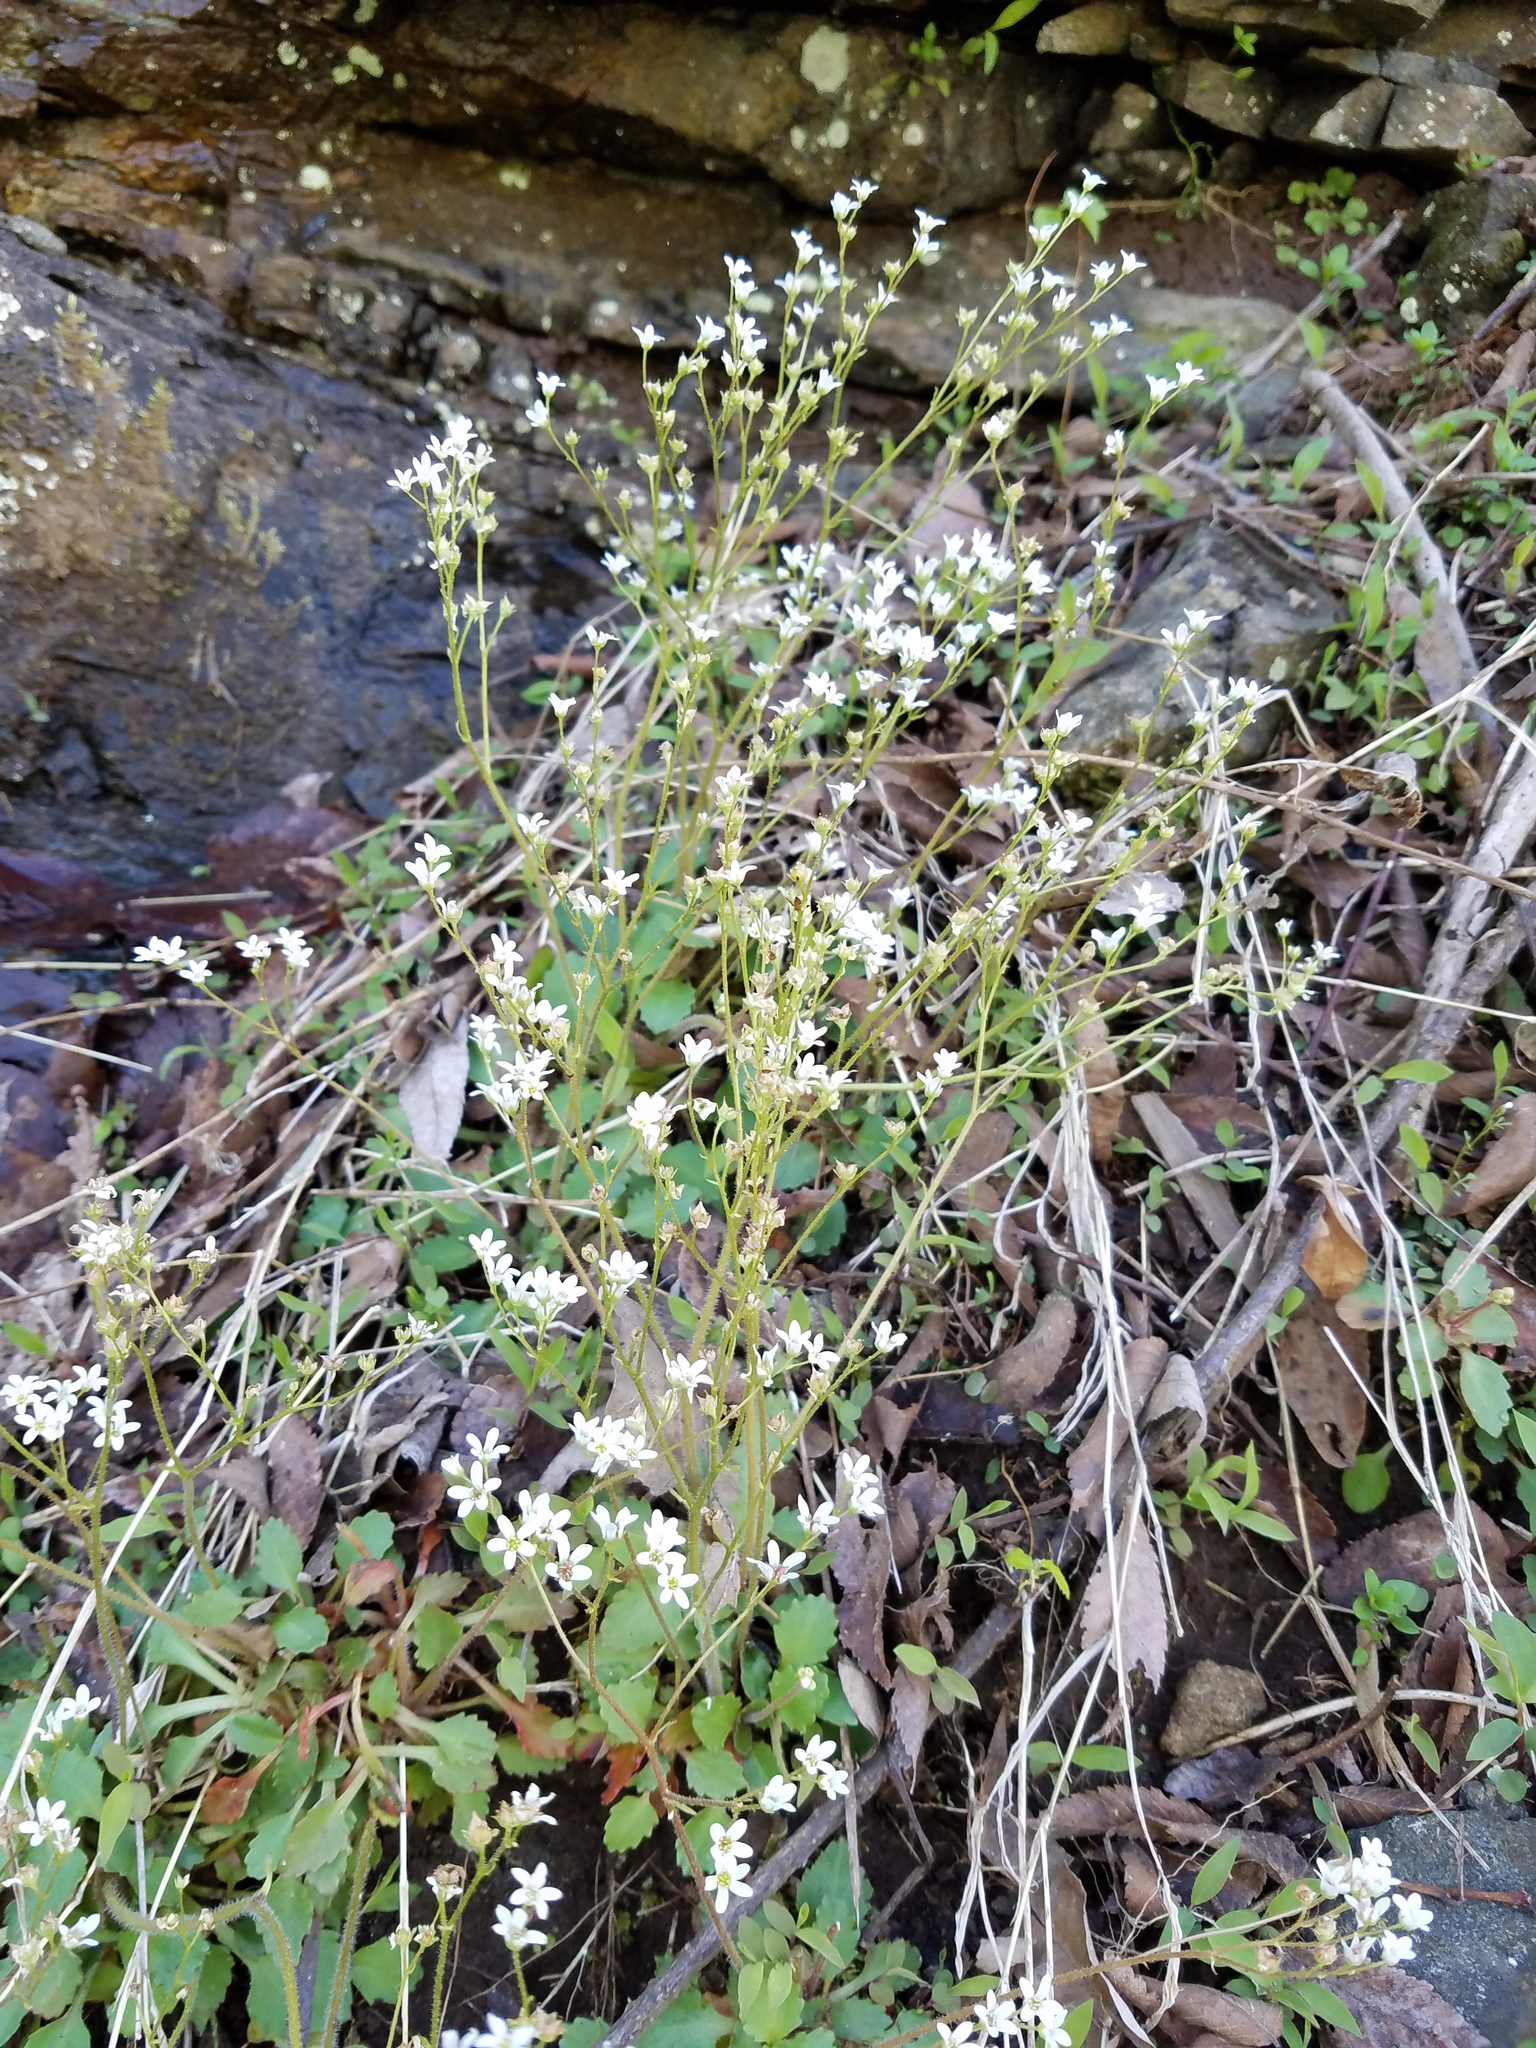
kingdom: Plantae
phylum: Tracheophyta
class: Magnoliopsida
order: Saxifragales
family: Saxifragaceae
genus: Micranthes
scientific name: Micranthes virginiensis
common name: Early saxifrage
